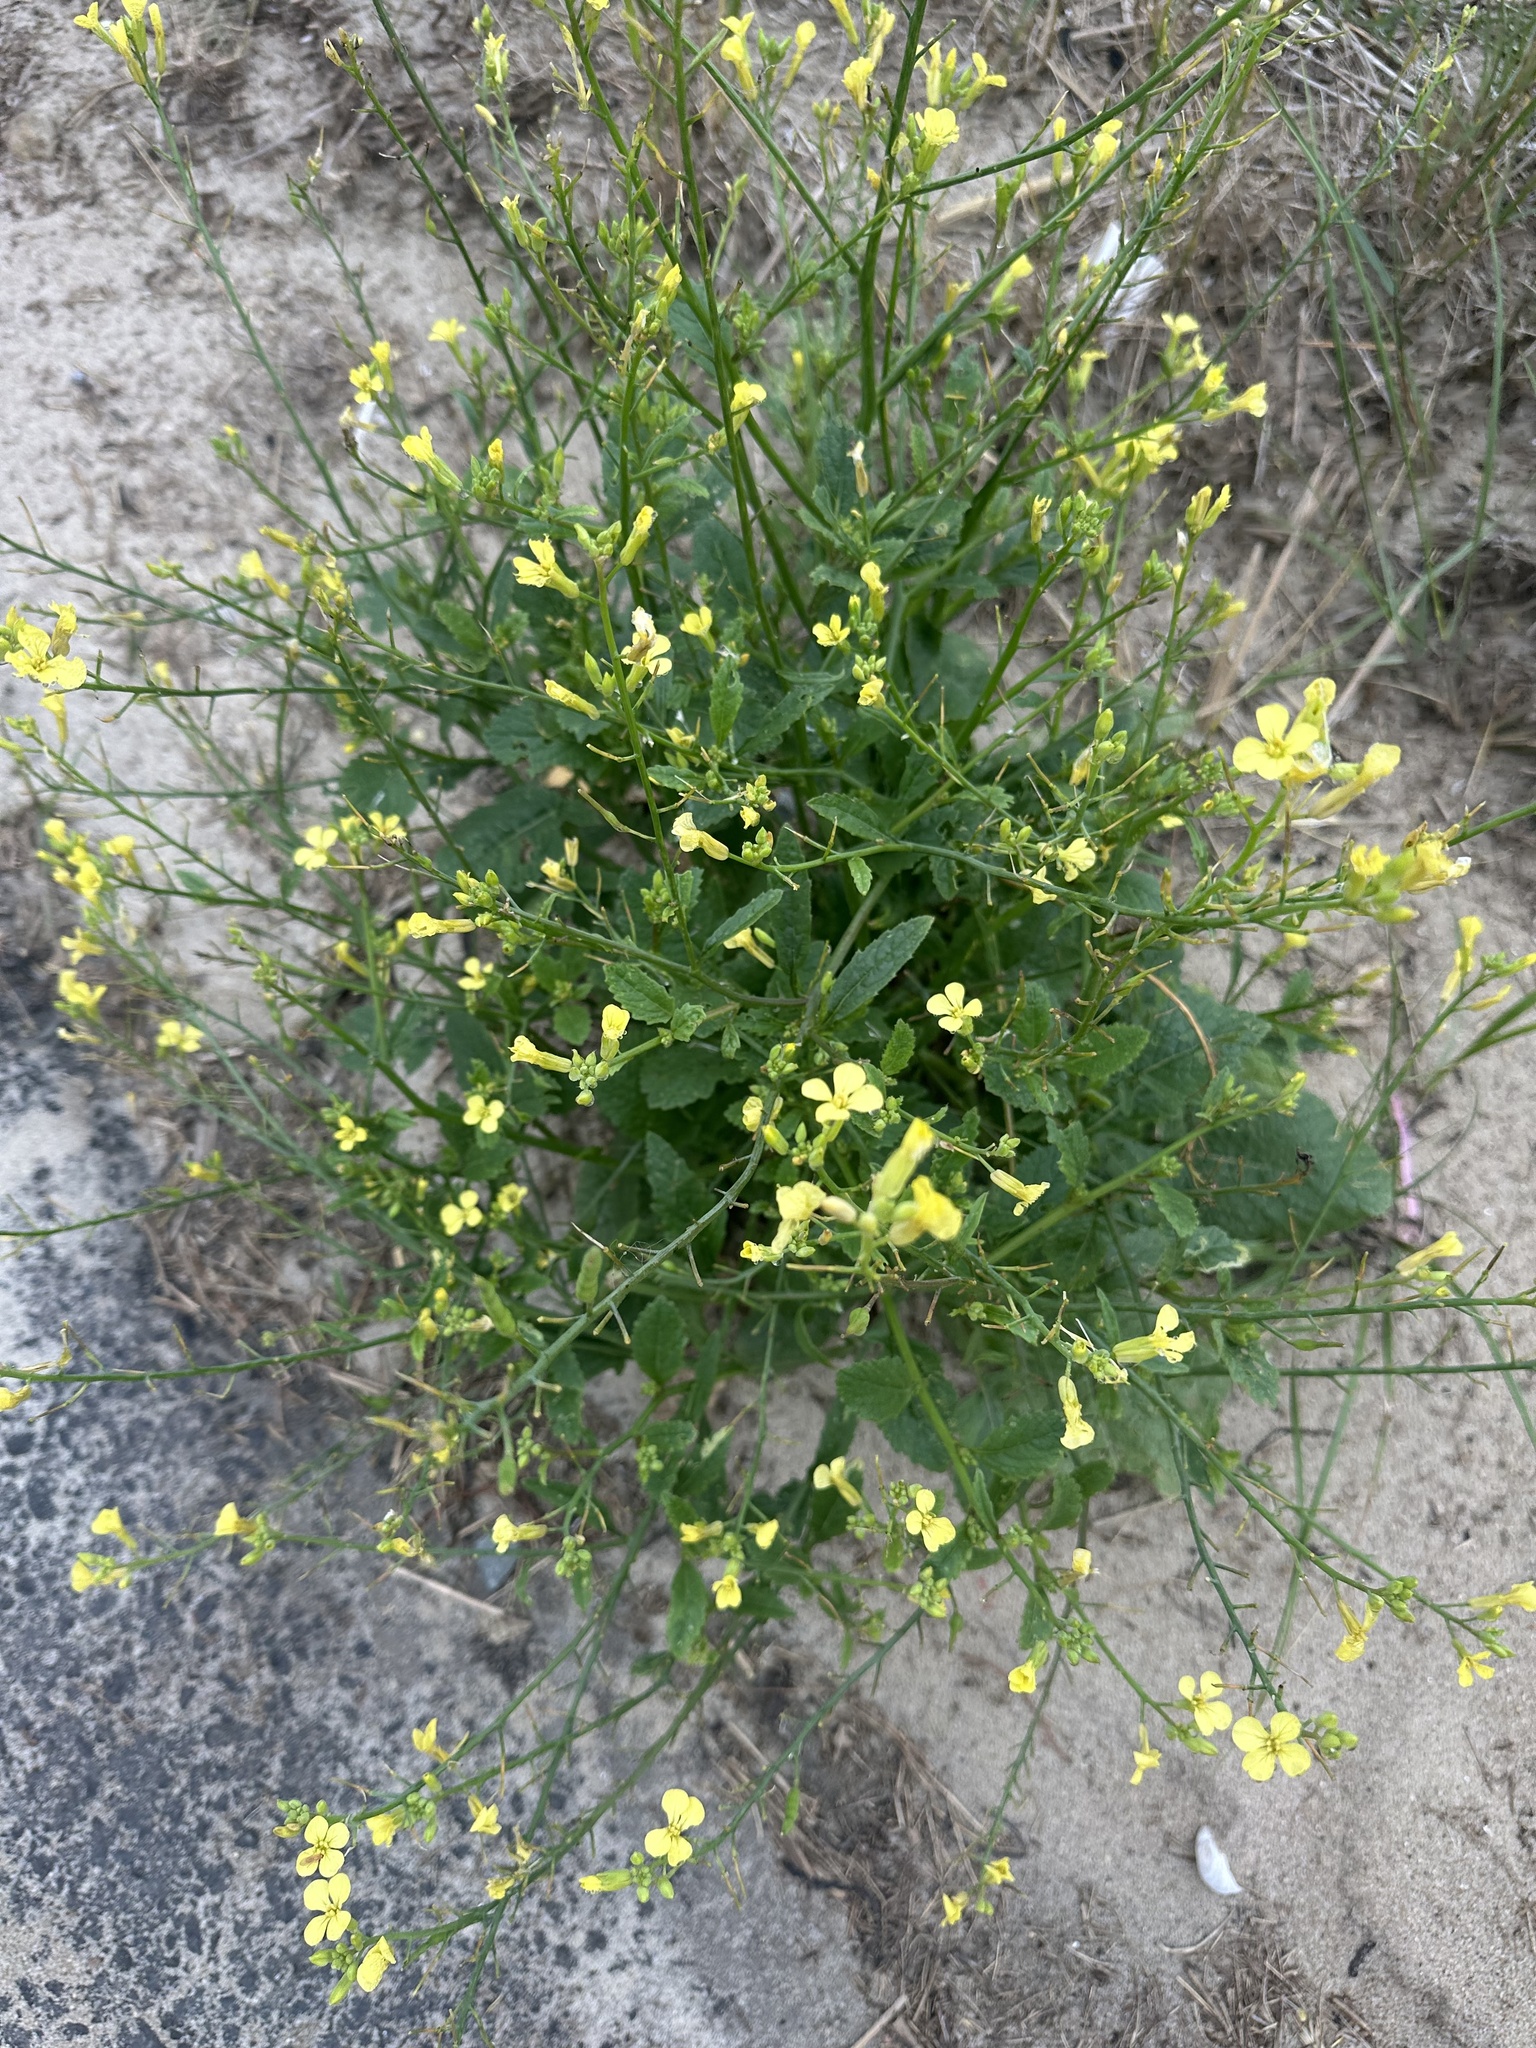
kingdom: Plantae
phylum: Tracheophyta
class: Magnoliopsida
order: Brassicales
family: Brassicaceae
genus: Raphanus
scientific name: Raphanus raphanistrum
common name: Wild radish
